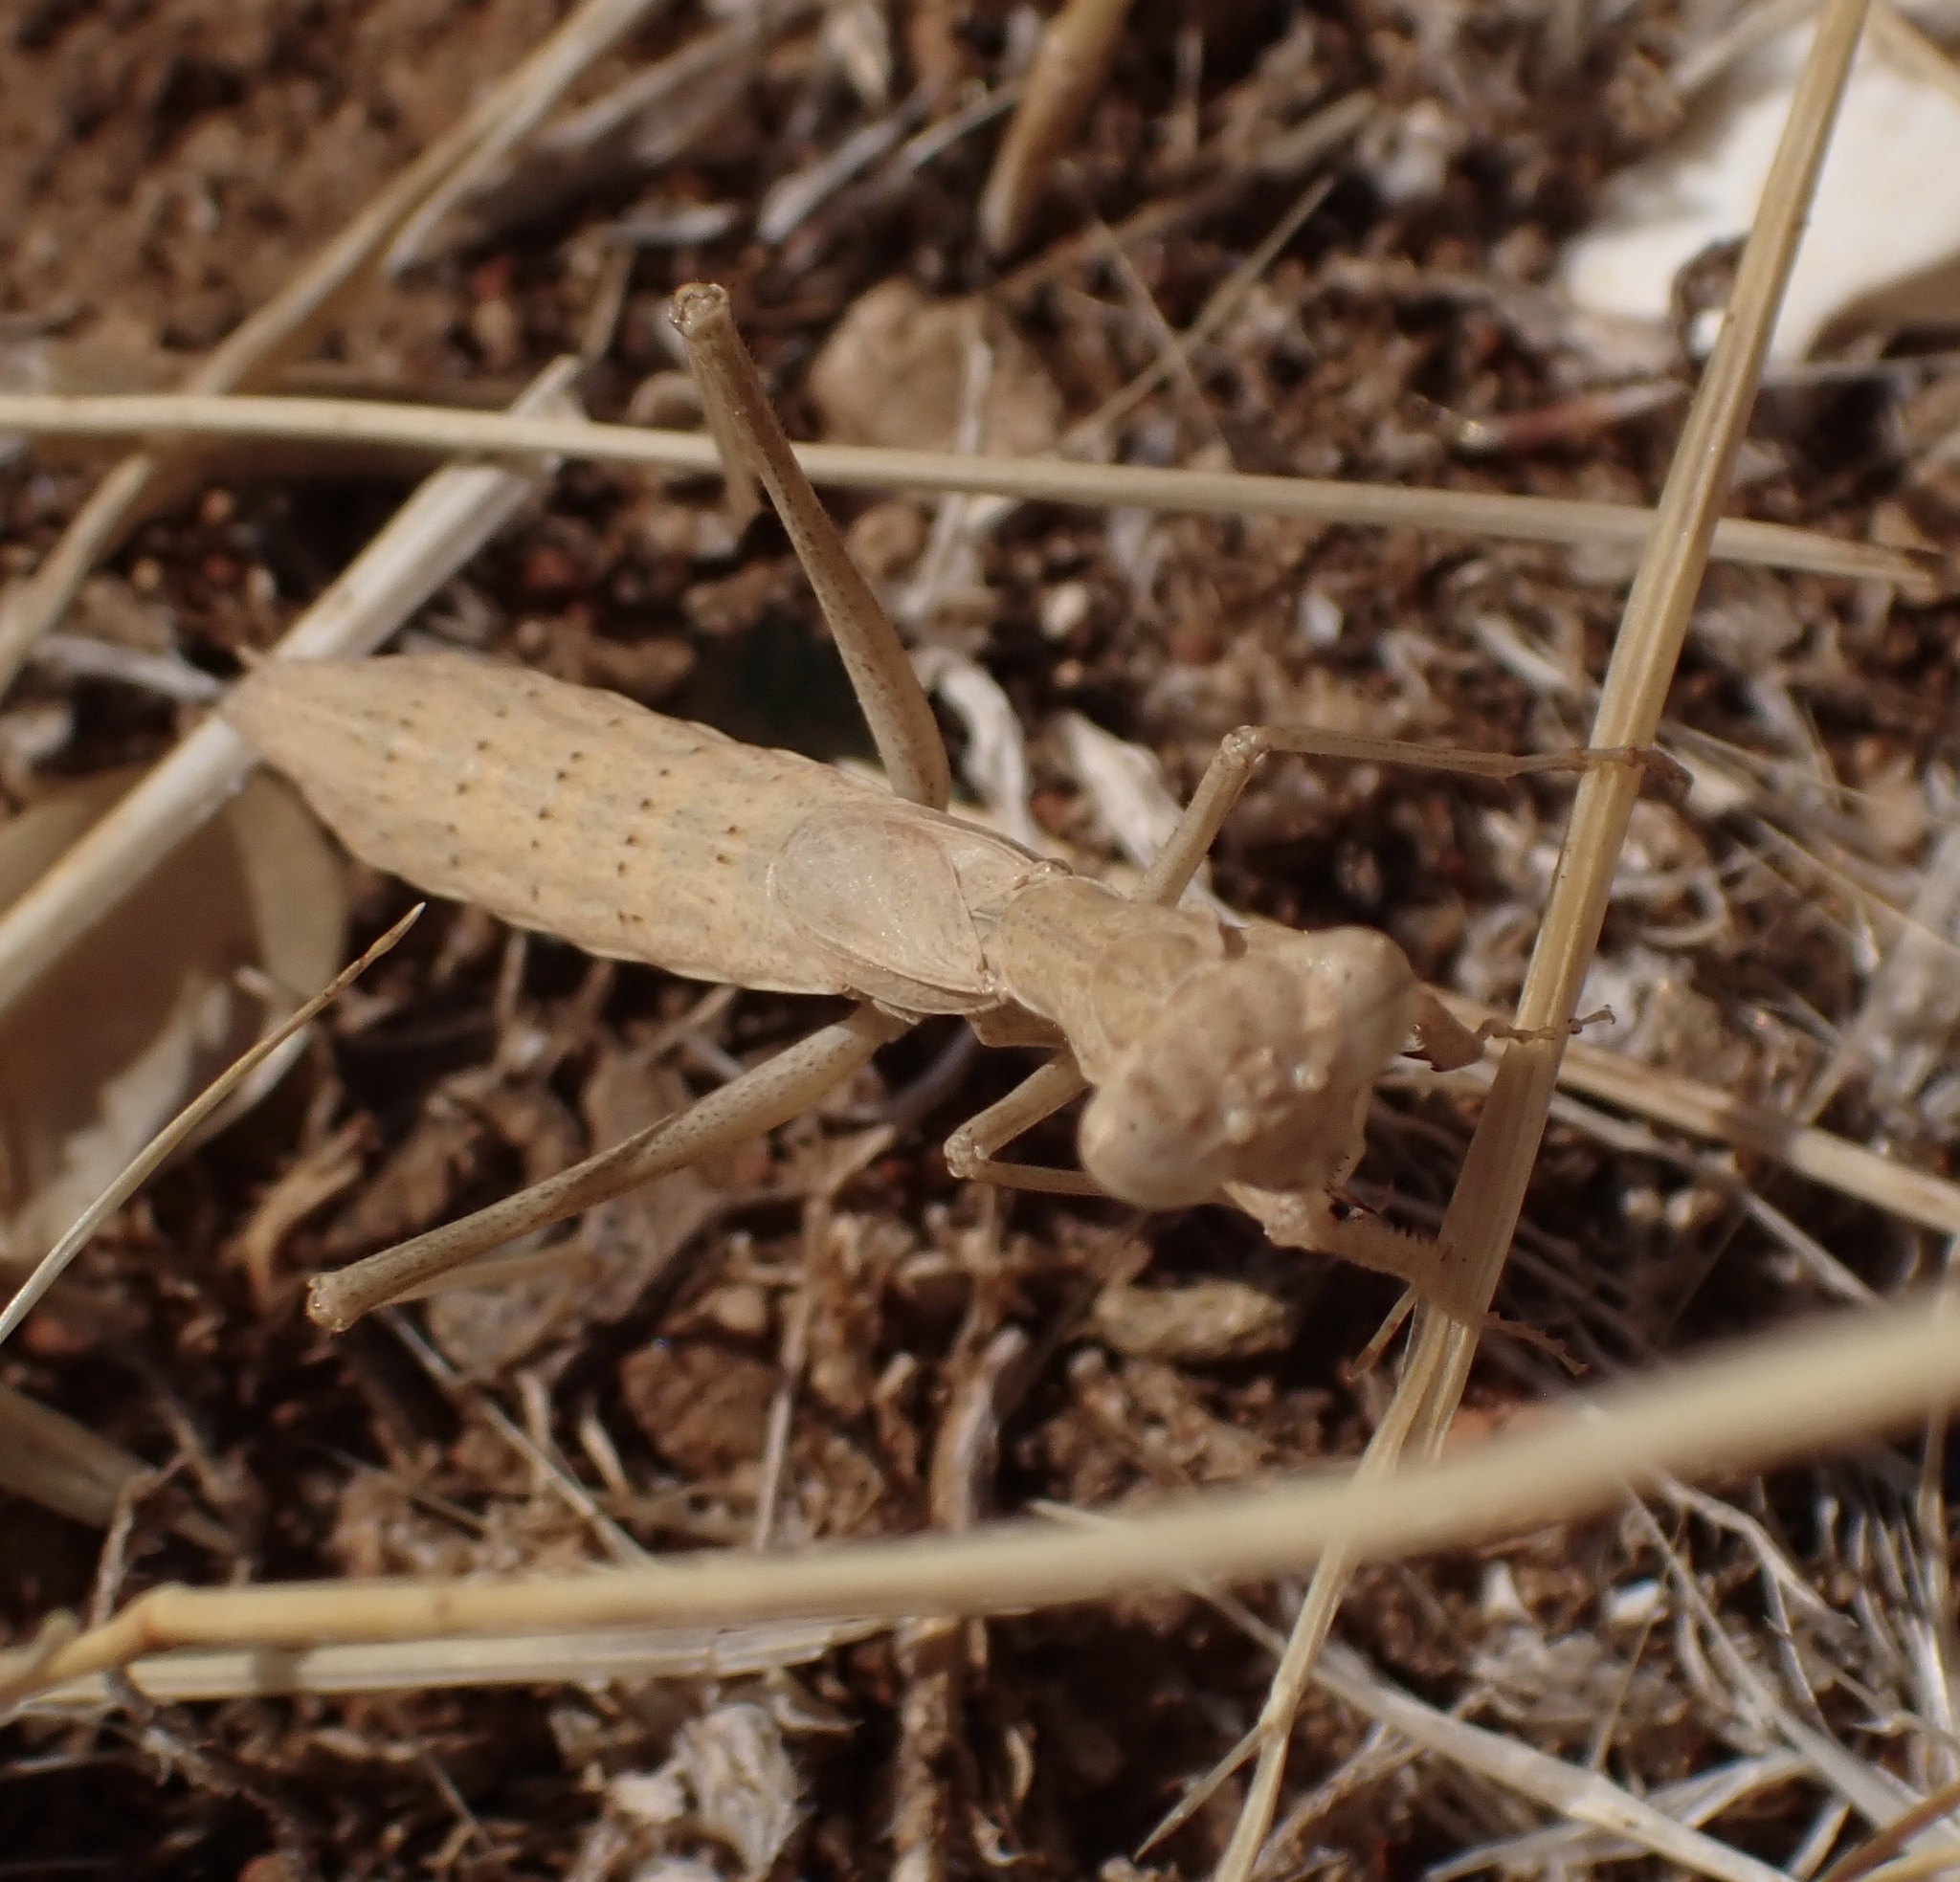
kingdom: Animalia
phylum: Arthropoda
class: Insecta
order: Mantodea
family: Amelidae
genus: Ameles
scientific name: Ameles decolor
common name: Dwarf mantis
